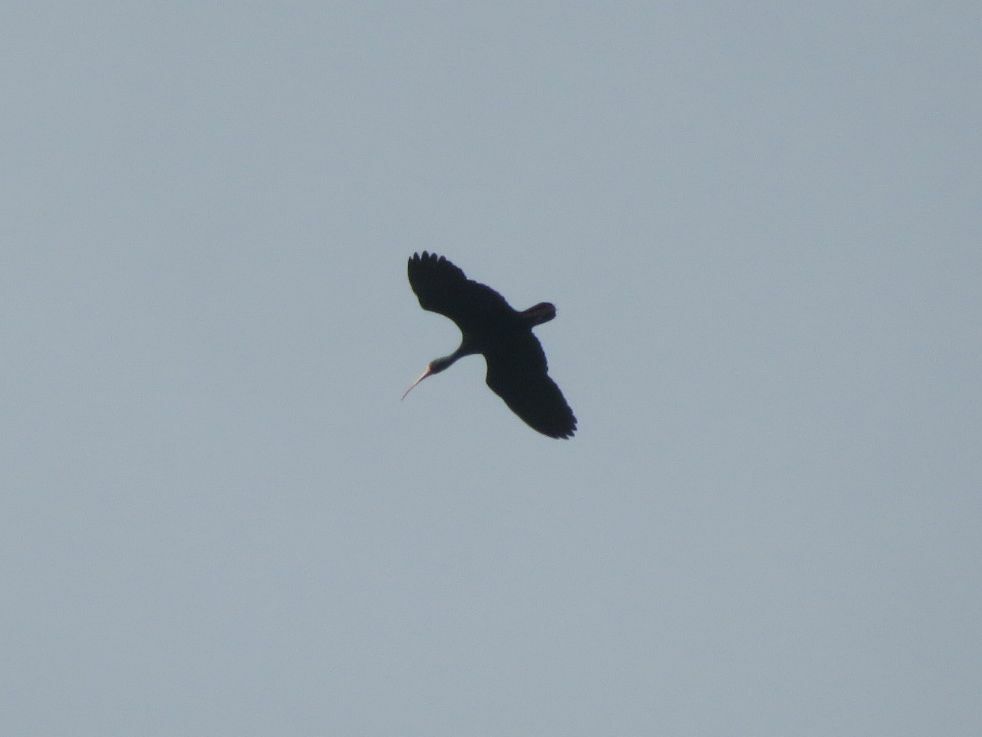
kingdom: Animalia
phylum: Chordata
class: Aves
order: Pelecaniformes
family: Threskiornithidae
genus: Phimosus
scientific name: Phimosus infuscatus
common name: Bare-faced ibis
